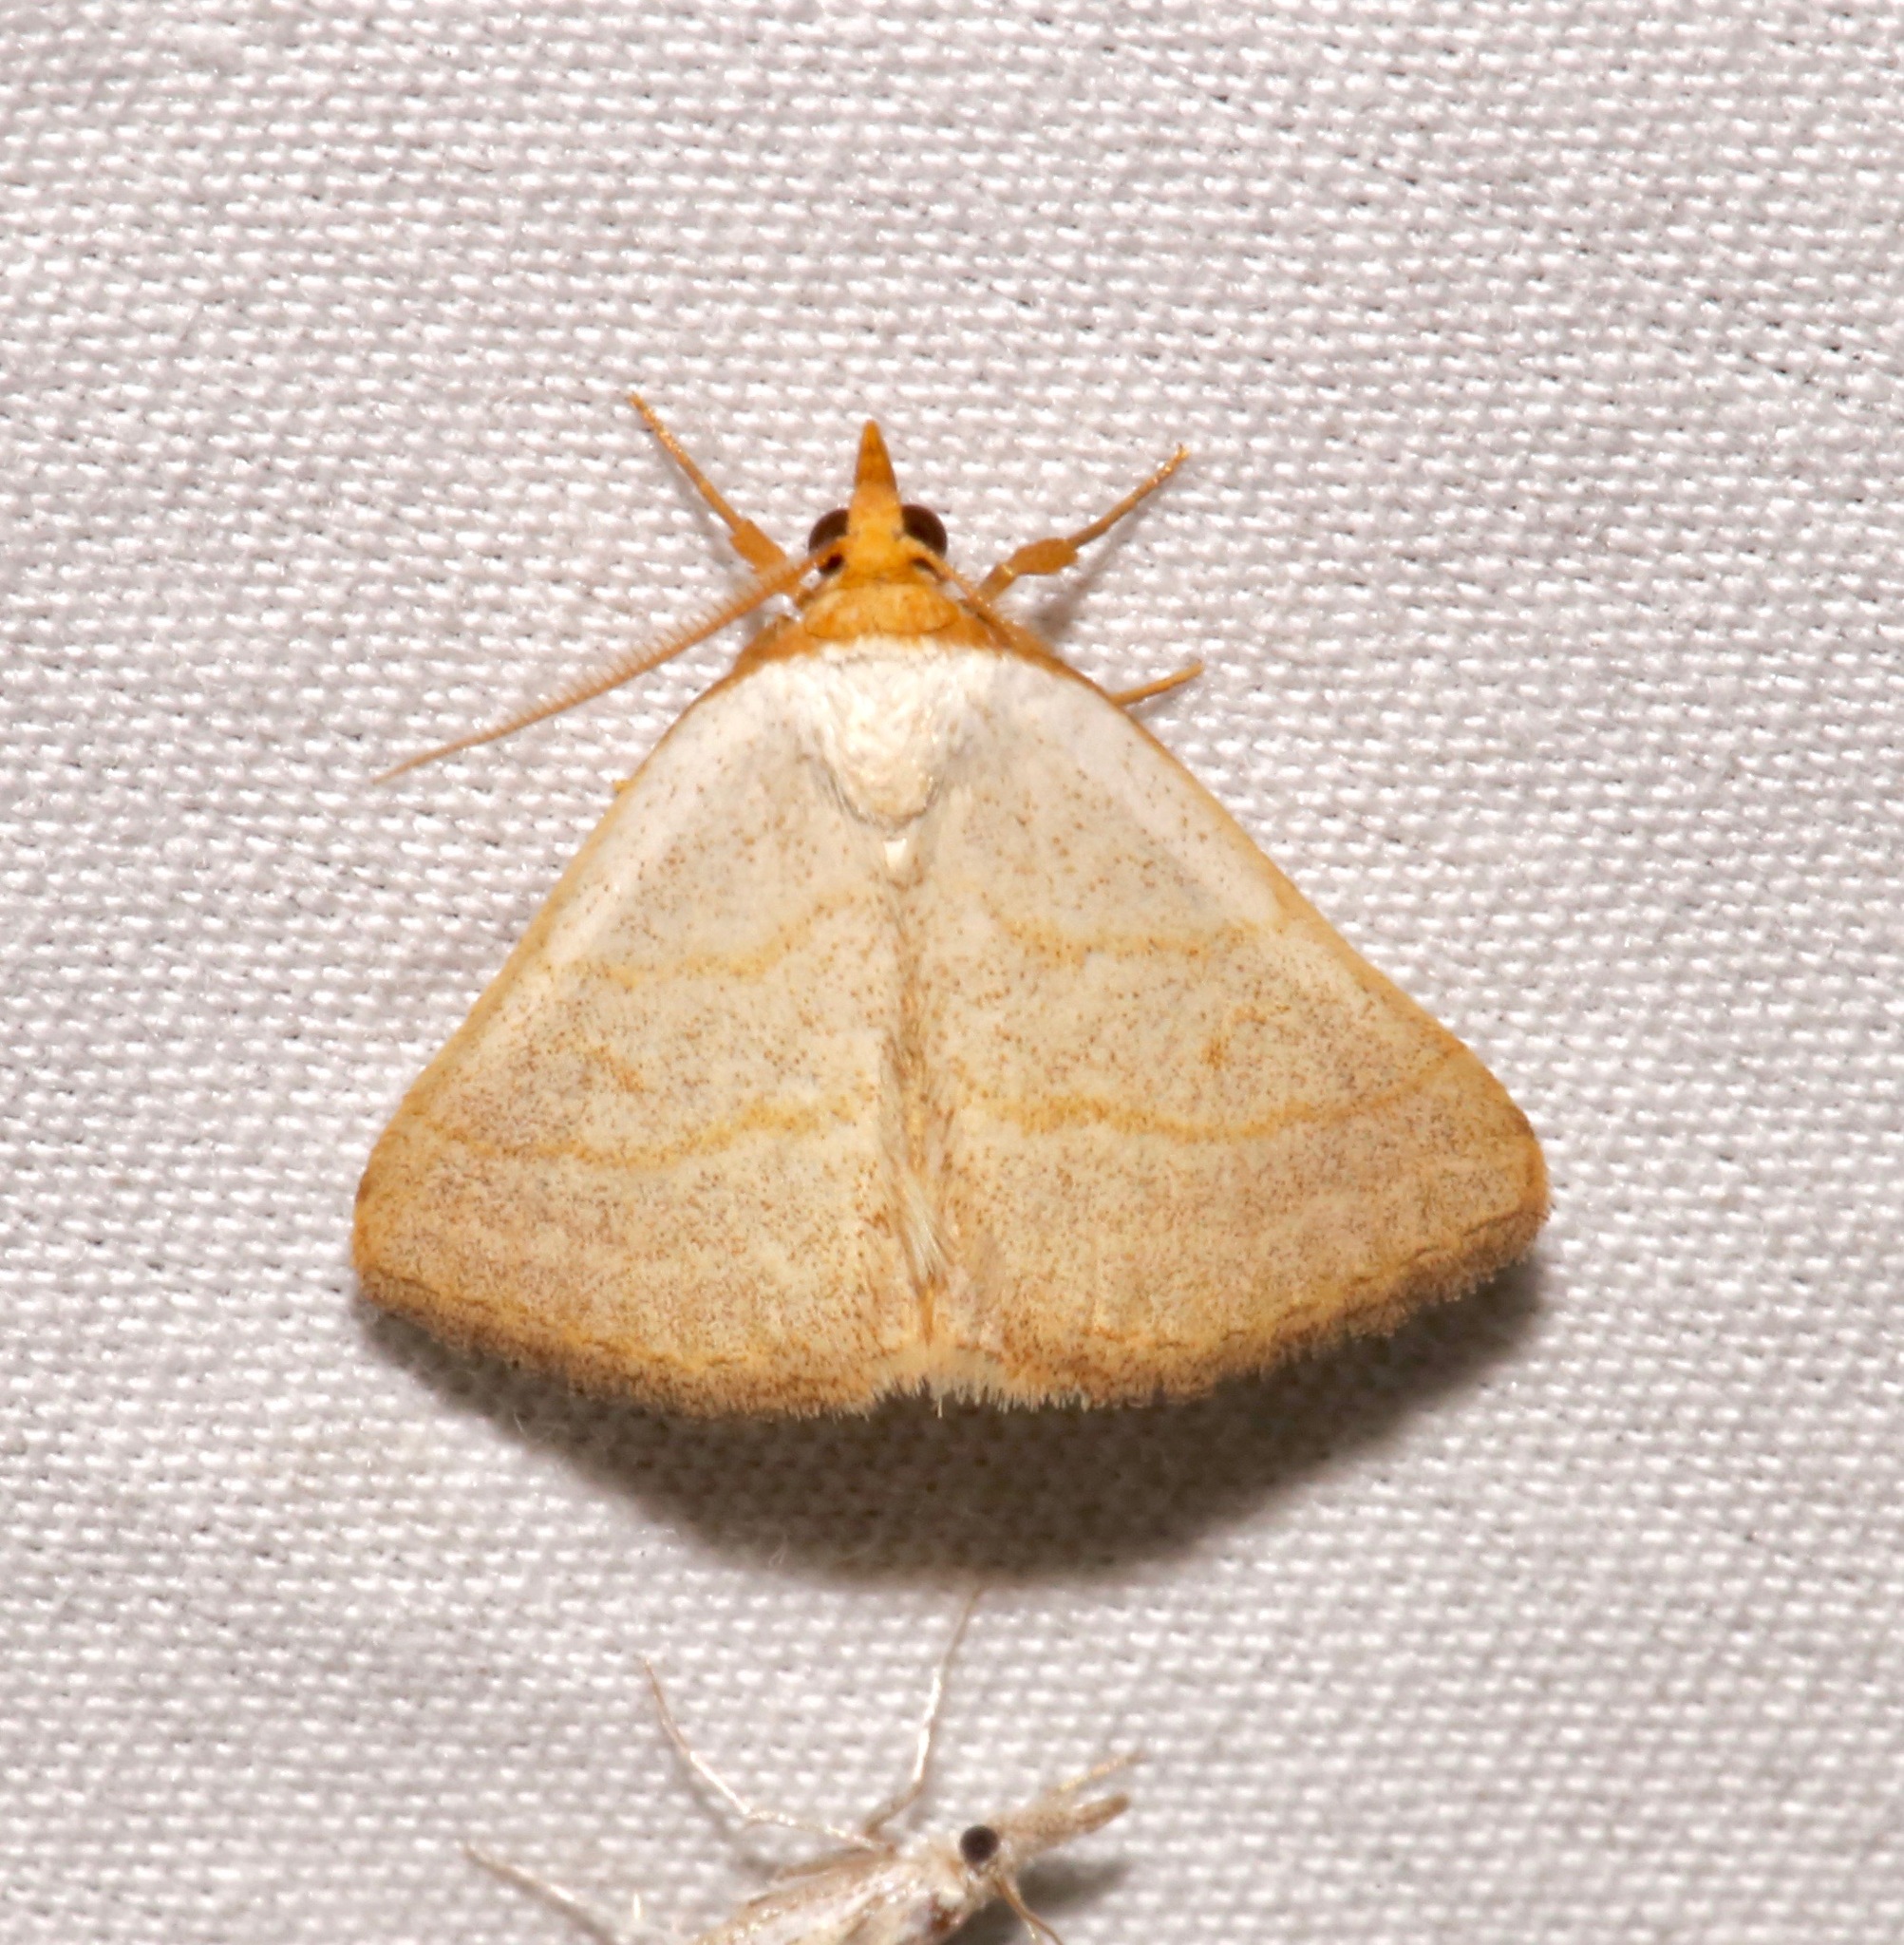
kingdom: Animalia
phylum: Arthropoda
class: Insecta
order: Lepidoptera
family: Erebidae
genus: Oxycilla
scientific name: Oxycilla tripla
